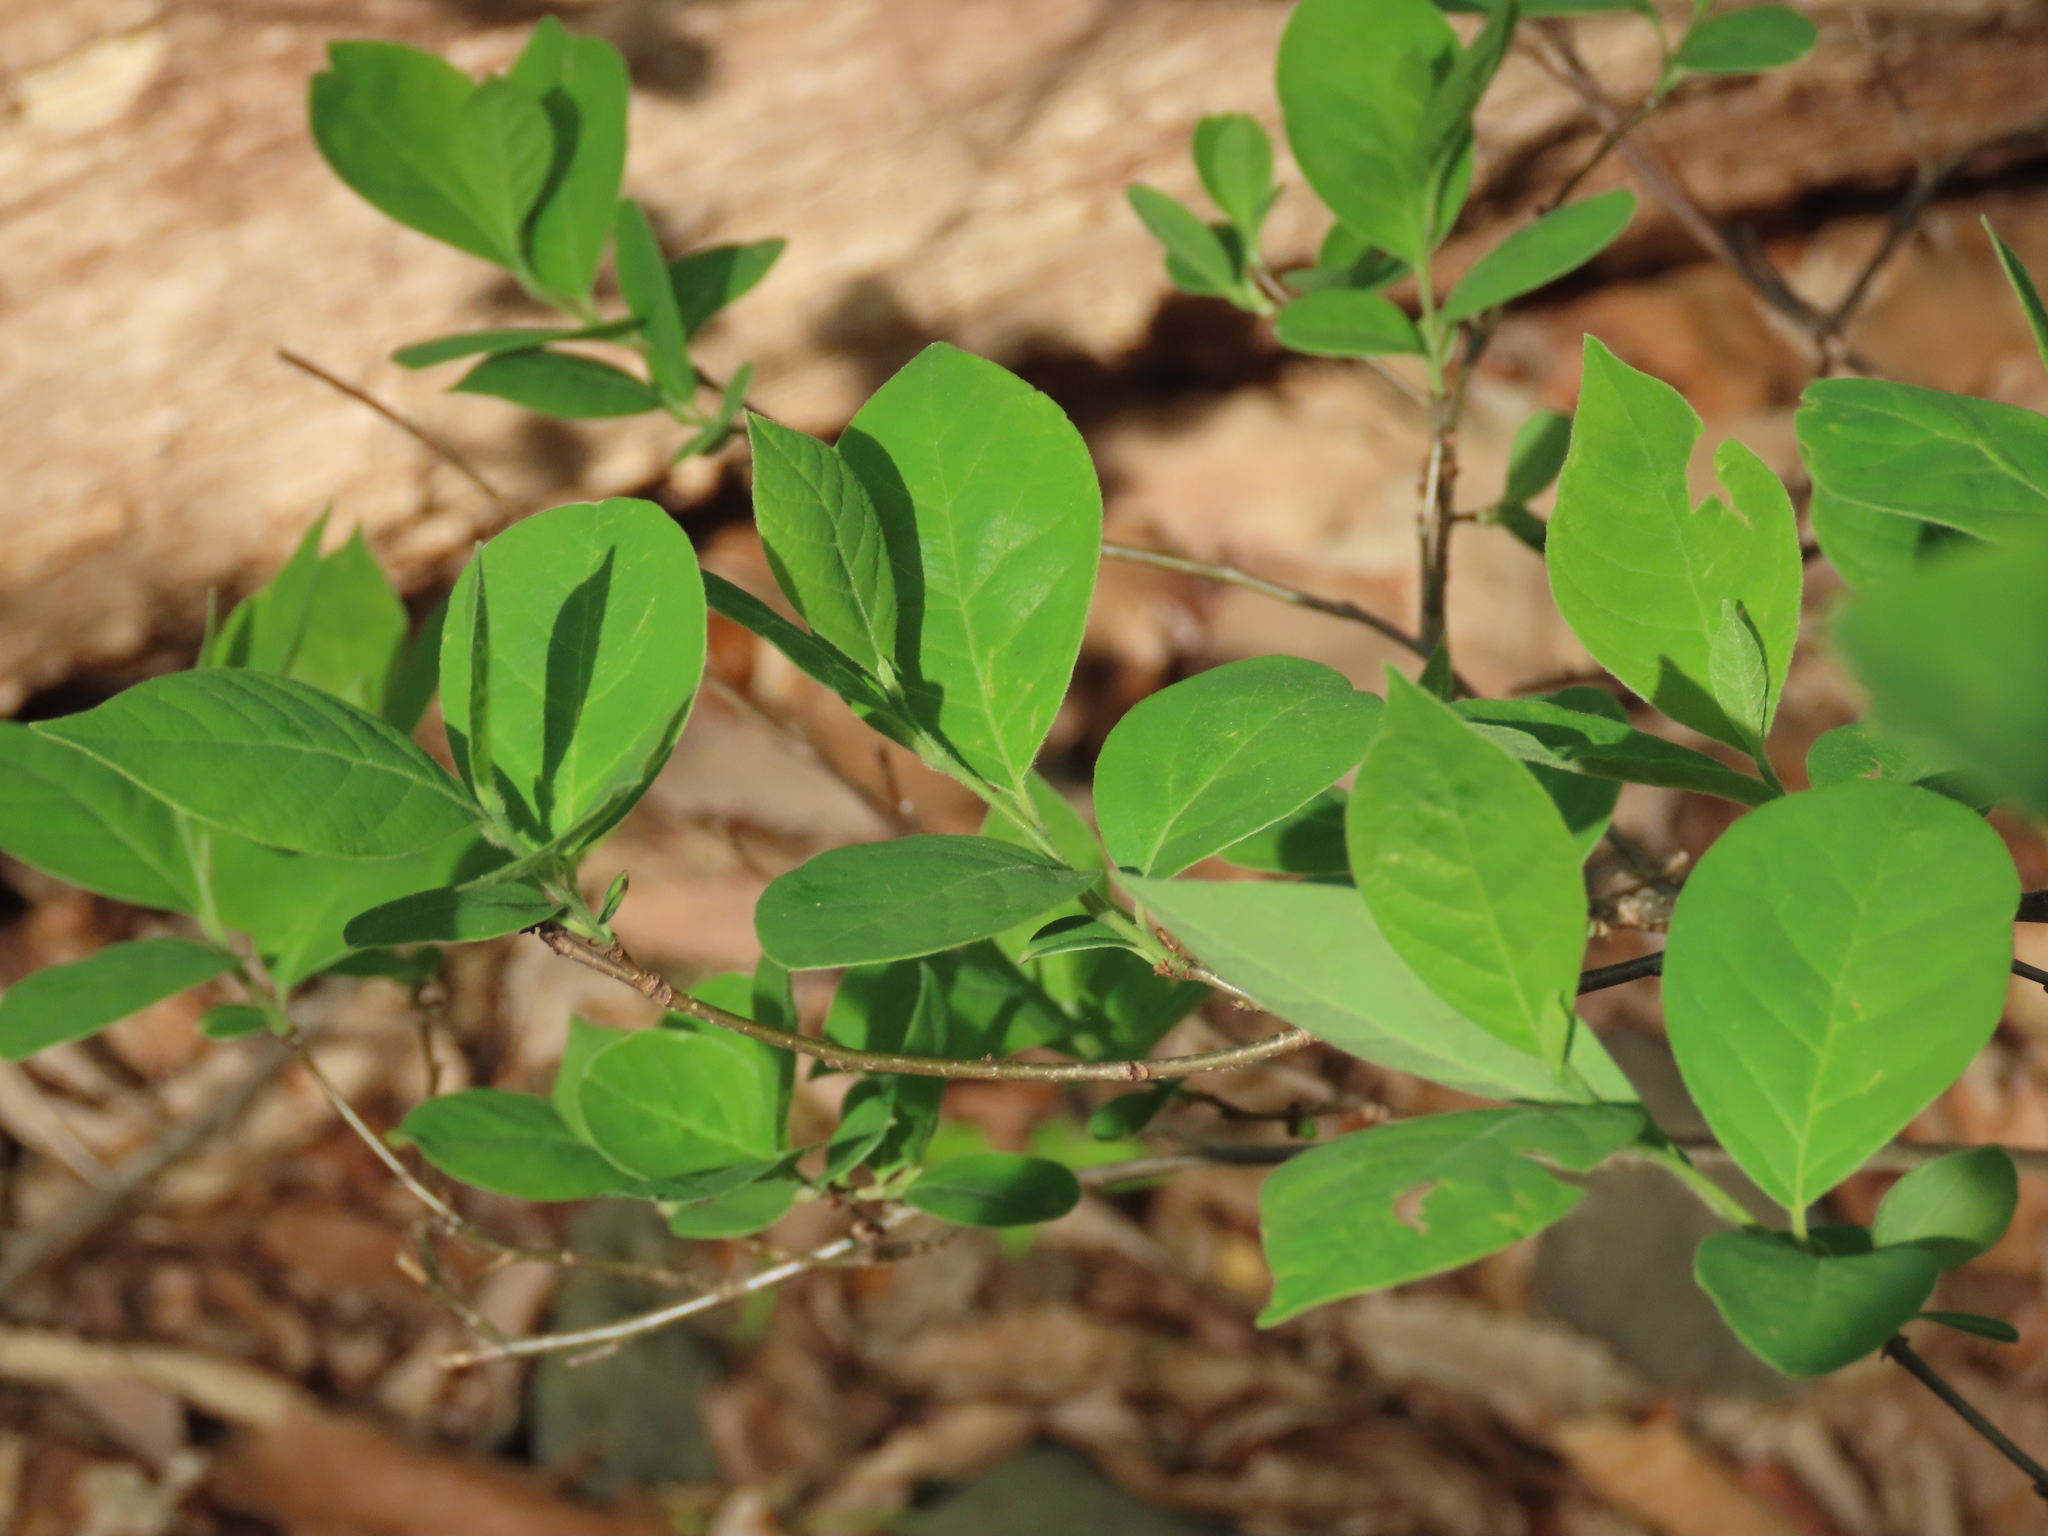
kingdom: Plantae
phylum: Tracheophyta
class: Magnoliopsida
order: Laurales
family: Lauraceae
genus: Lindera
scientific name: Lindera benzoin
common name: Spicebush
